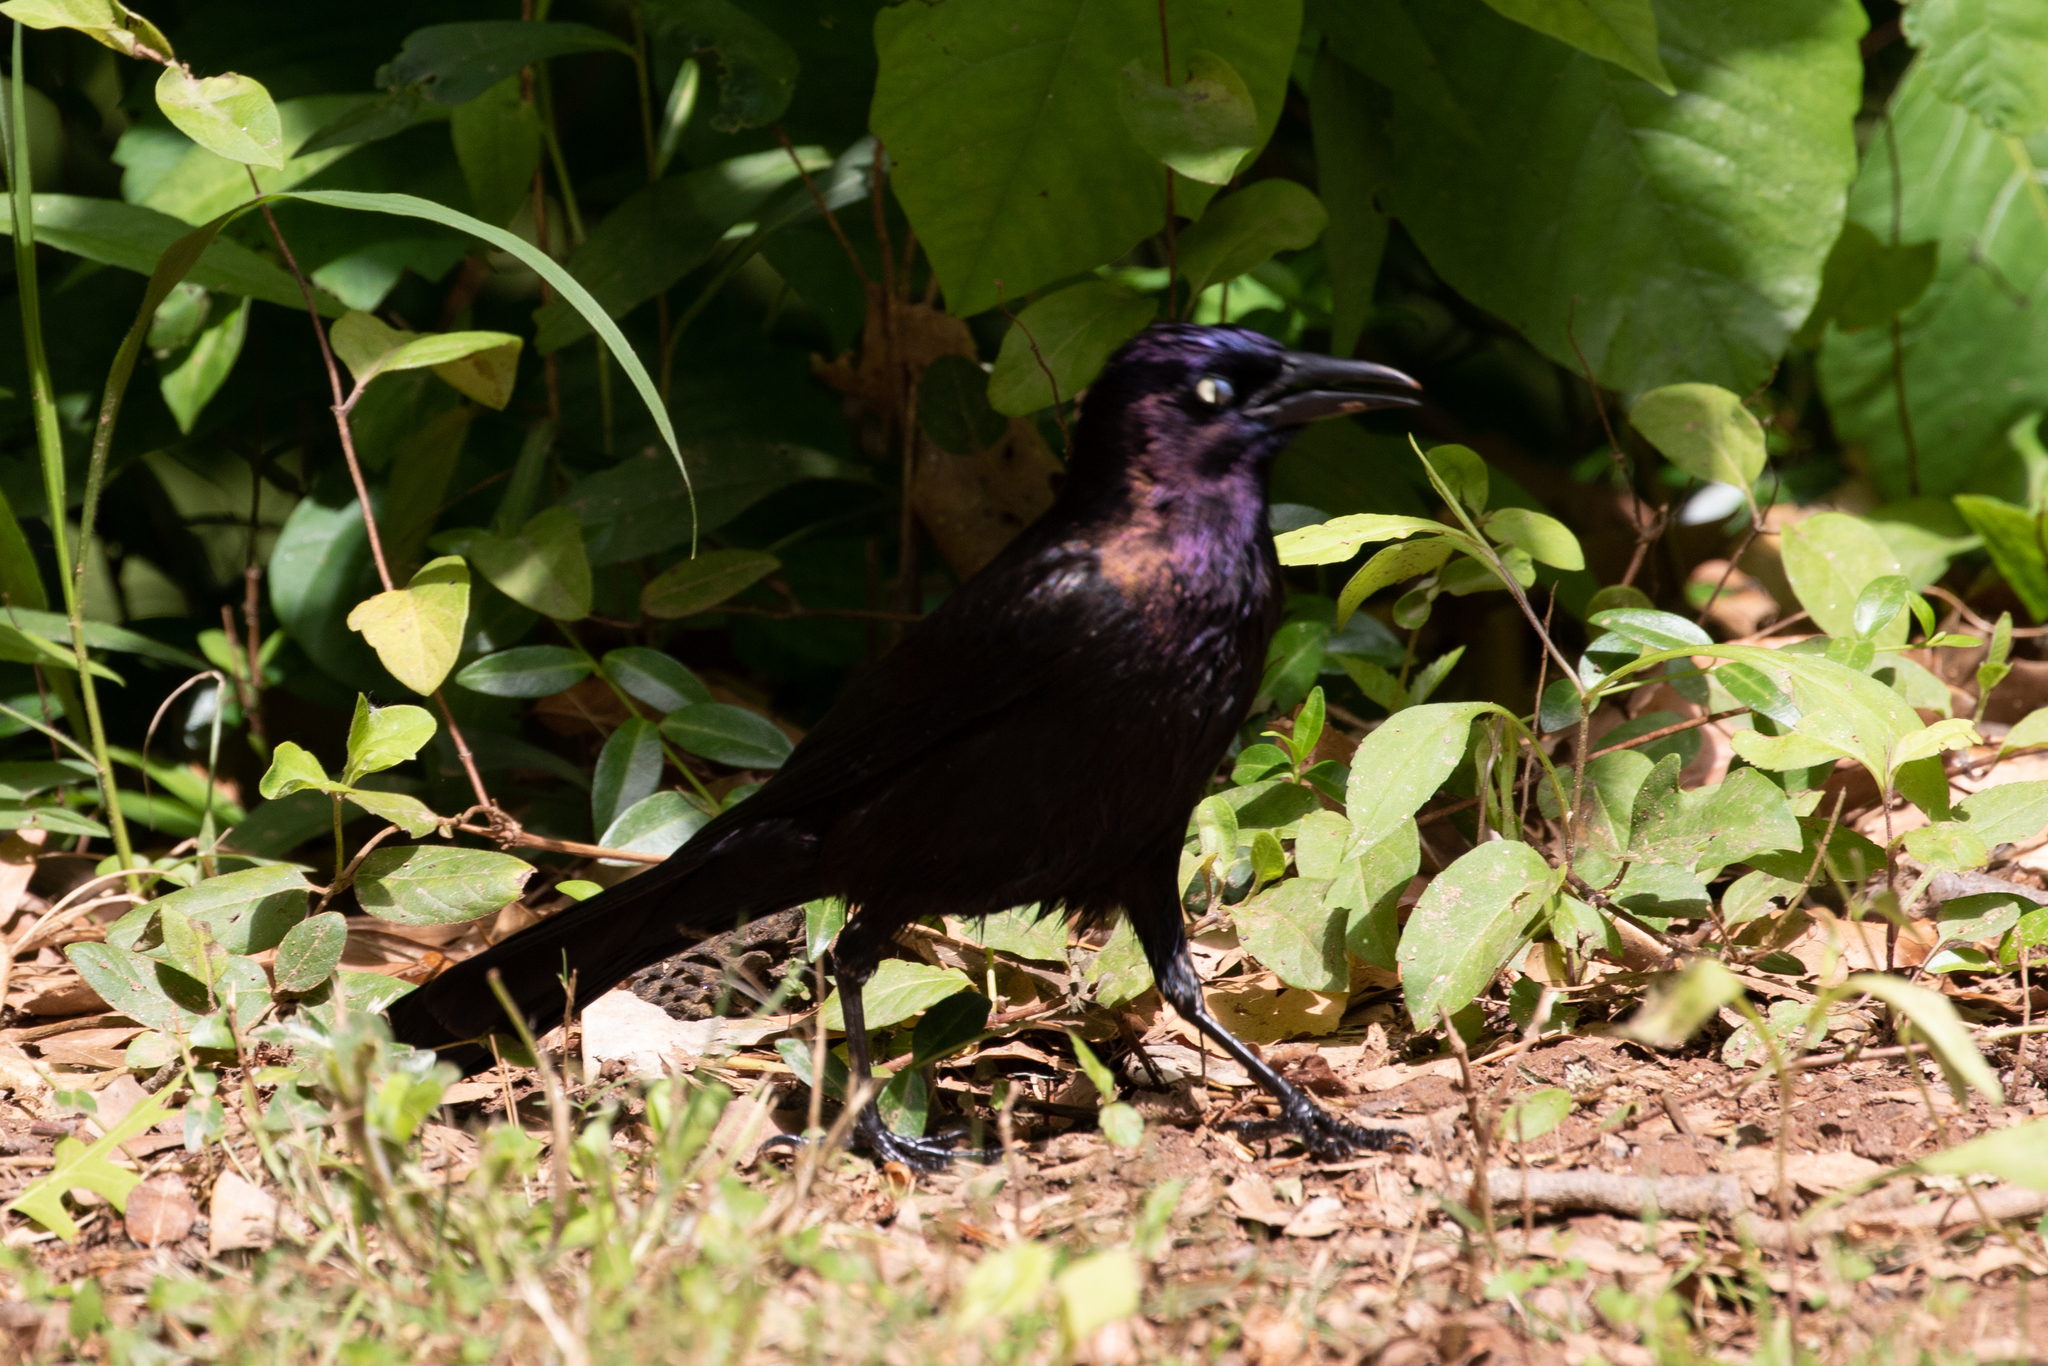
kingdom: Animalia
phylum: Chordata
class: Aves
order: Passeriformes
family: Icteridae
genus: Quiscalus
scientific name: Quiscalus quiscula
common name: Common grackle
